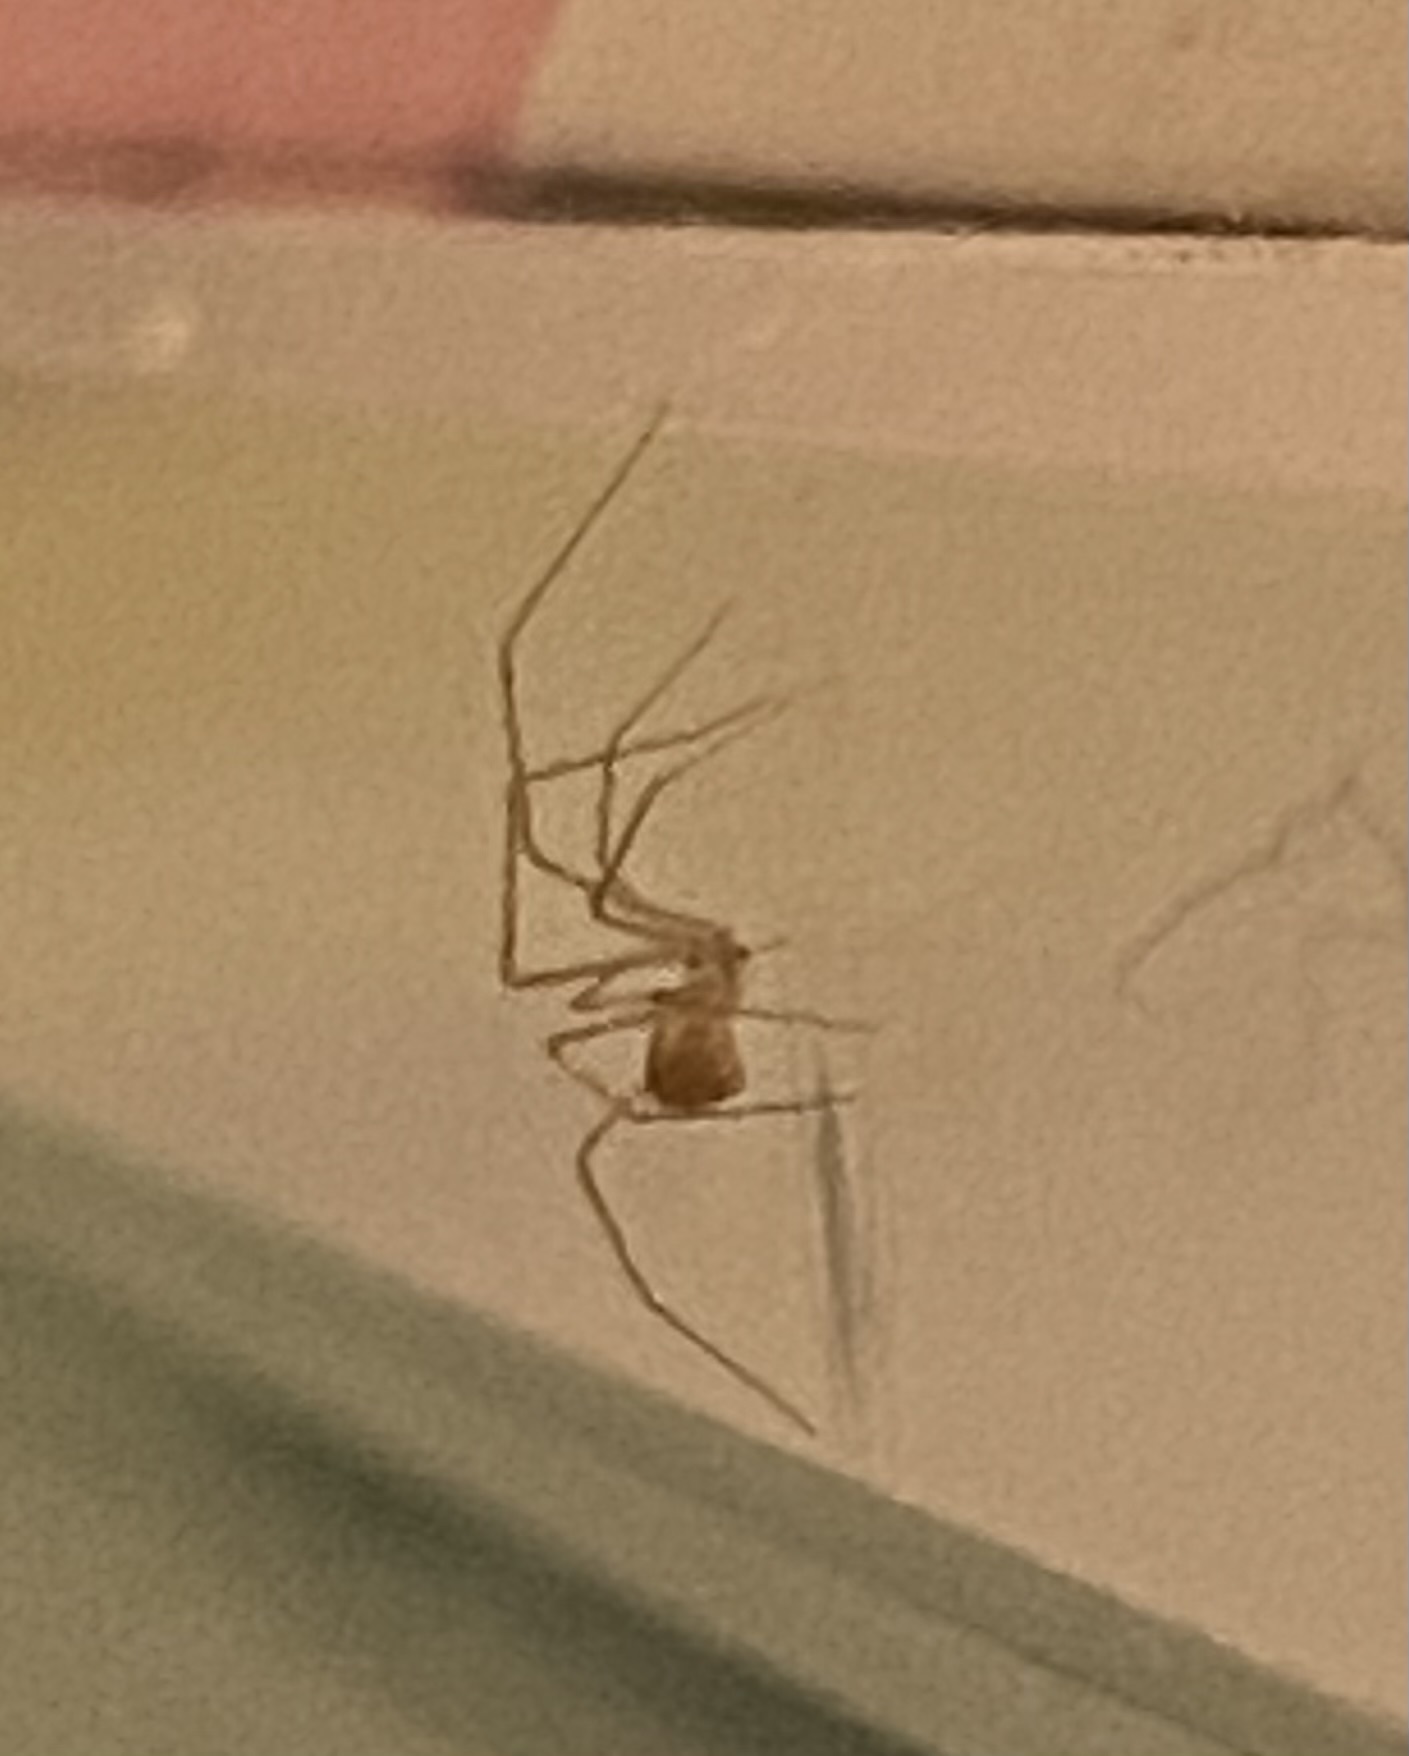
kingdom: Animalia
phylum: Arthropoda
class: Arachnida
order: Araneae
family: Pholcidae
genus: Spermophora
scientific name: Spermophora senoculata
